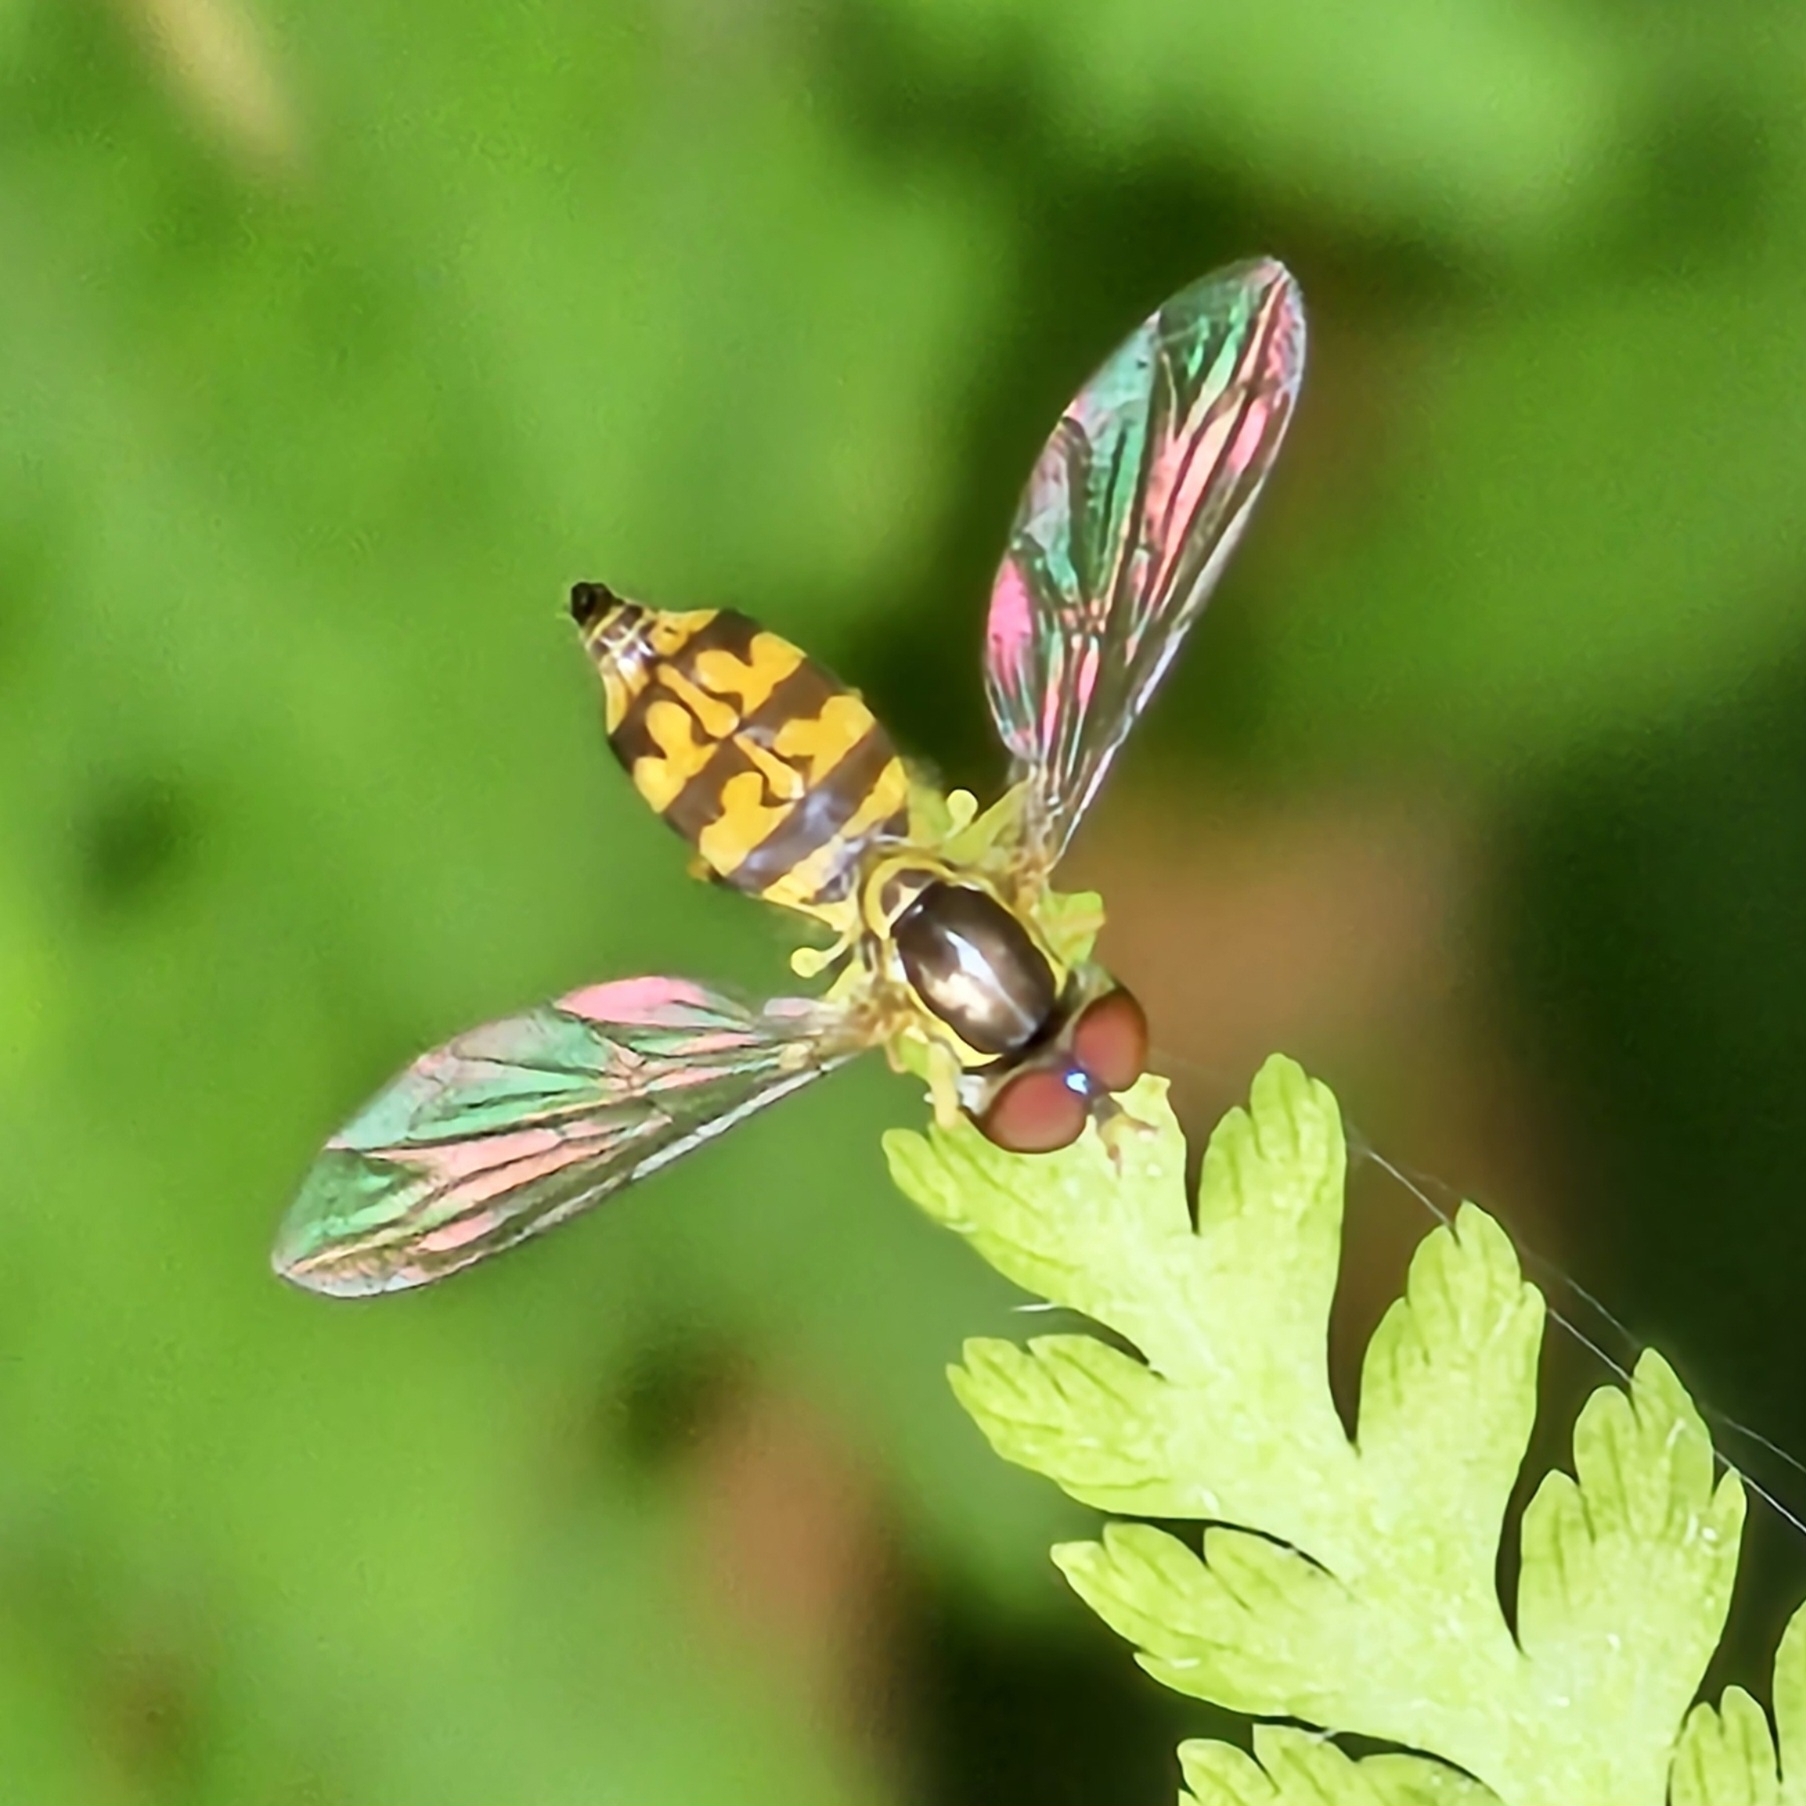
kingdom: Animalia
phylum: Arthropoda
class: Insecta
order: Diptera
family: Syrphidae
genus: Toxomerus
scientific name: Toxomerus geminatus
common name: Eastern calligrapher
